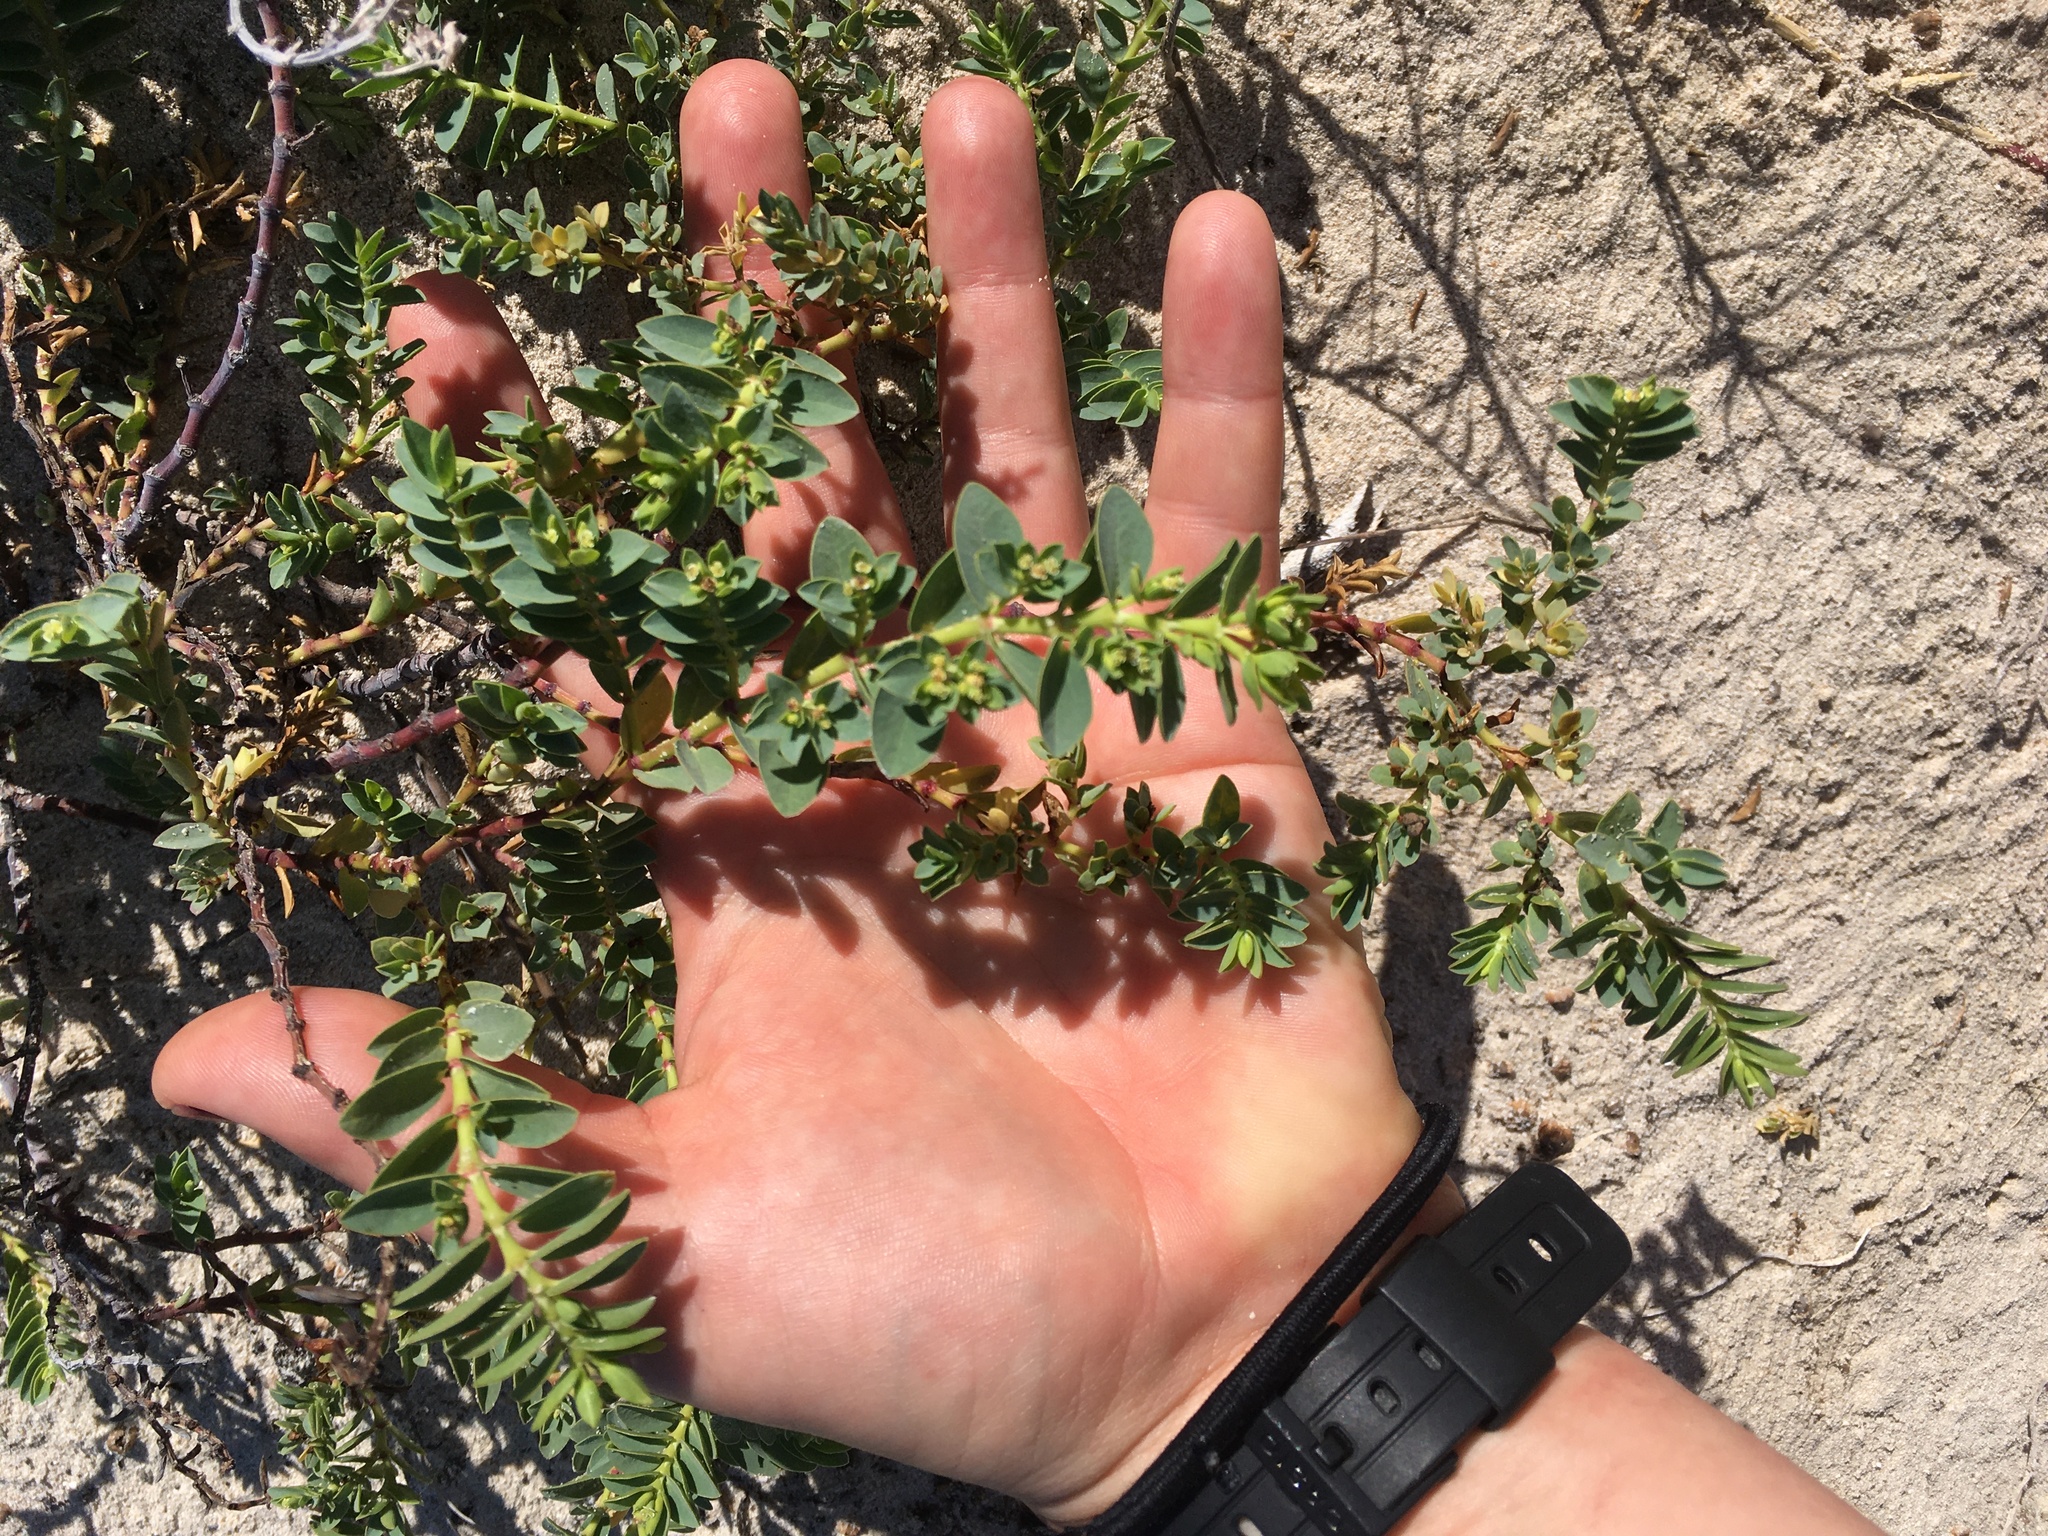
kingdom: Plantae
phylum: Tracheophyta
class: Magnoliopsida
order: Malpighiales
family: Euphorbiaceae
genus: Euphorbia
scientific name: Euphorbia mesembryanthemifolia
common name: Coastal beach sandmat
